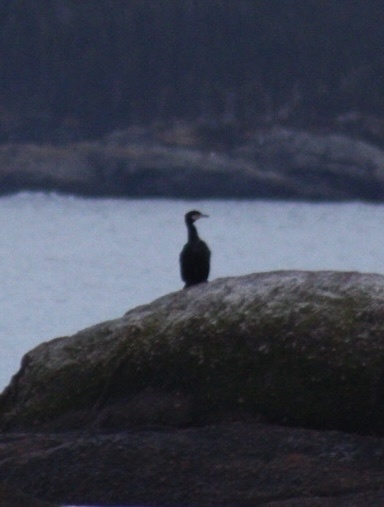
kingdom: Animalia
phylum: Chordata
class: Aves
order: Suliformes
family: Phalacrocoracidae
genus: Phalacrocorax
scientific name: Phalacrocorax auritus
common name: Double-crested cormorant
